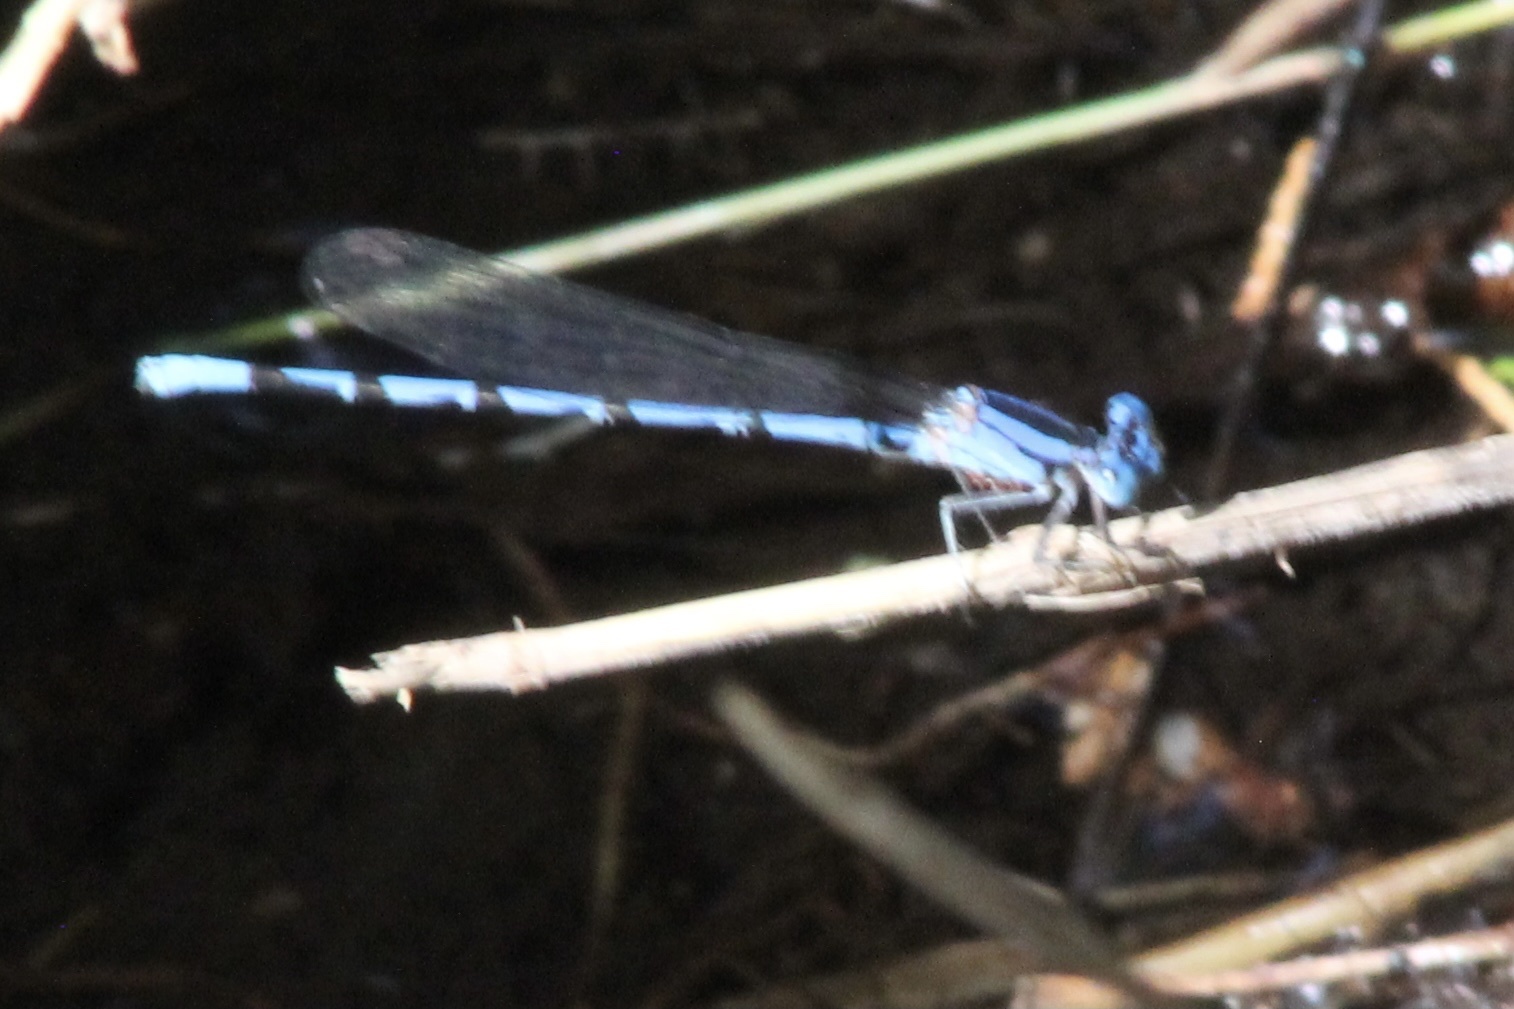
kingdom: Animalia
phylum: Arthropoda
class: Insecta
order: Odonata
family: Coenagrionidae
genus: Argia
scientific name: Argia funebris
